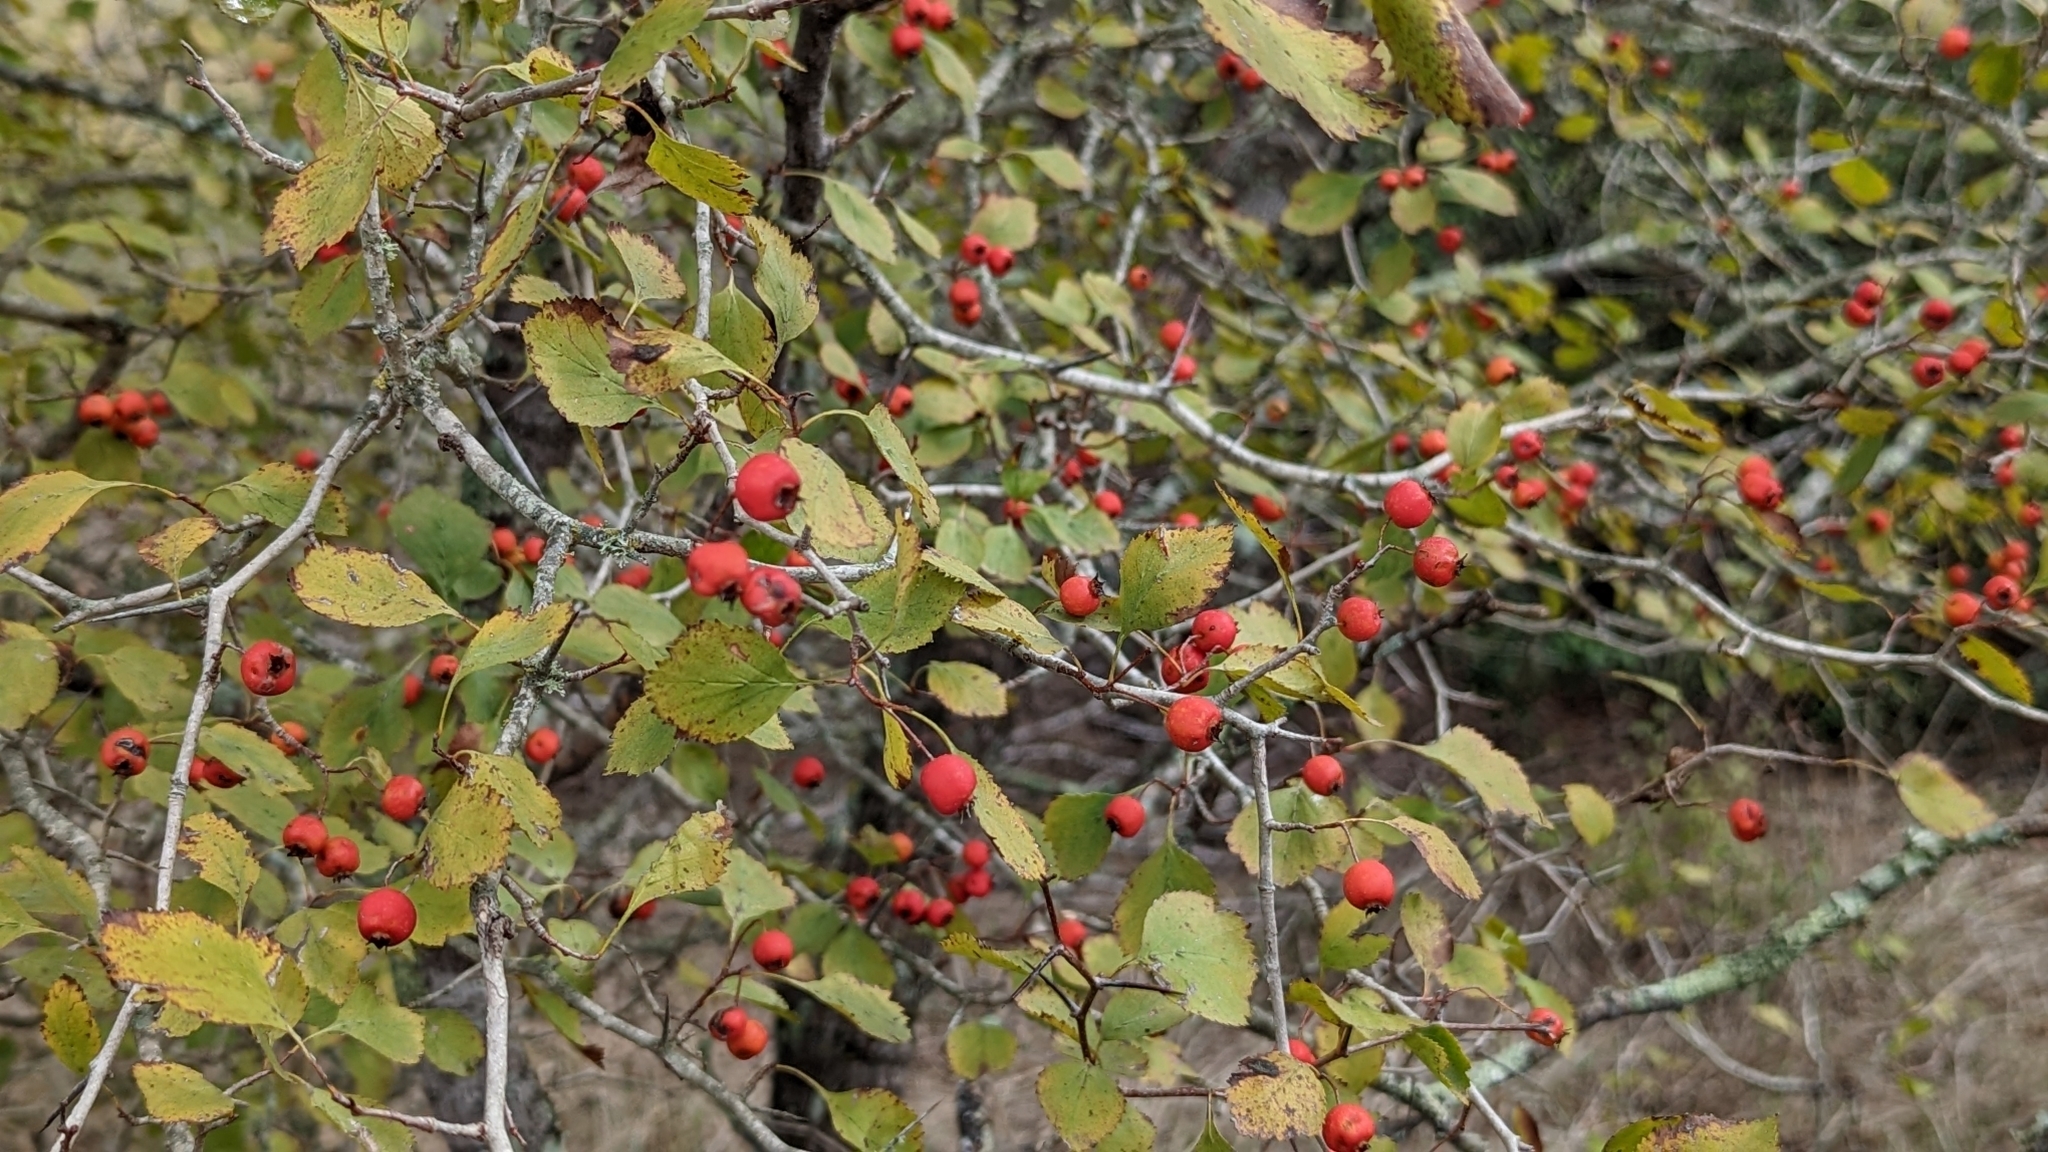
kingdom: Plantae
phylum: Tracheophyta
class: Magnoliopsida
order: Rosales
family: Rosaceae
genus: Crataegus
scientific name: Crataegus viridis
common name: Southernthorn
